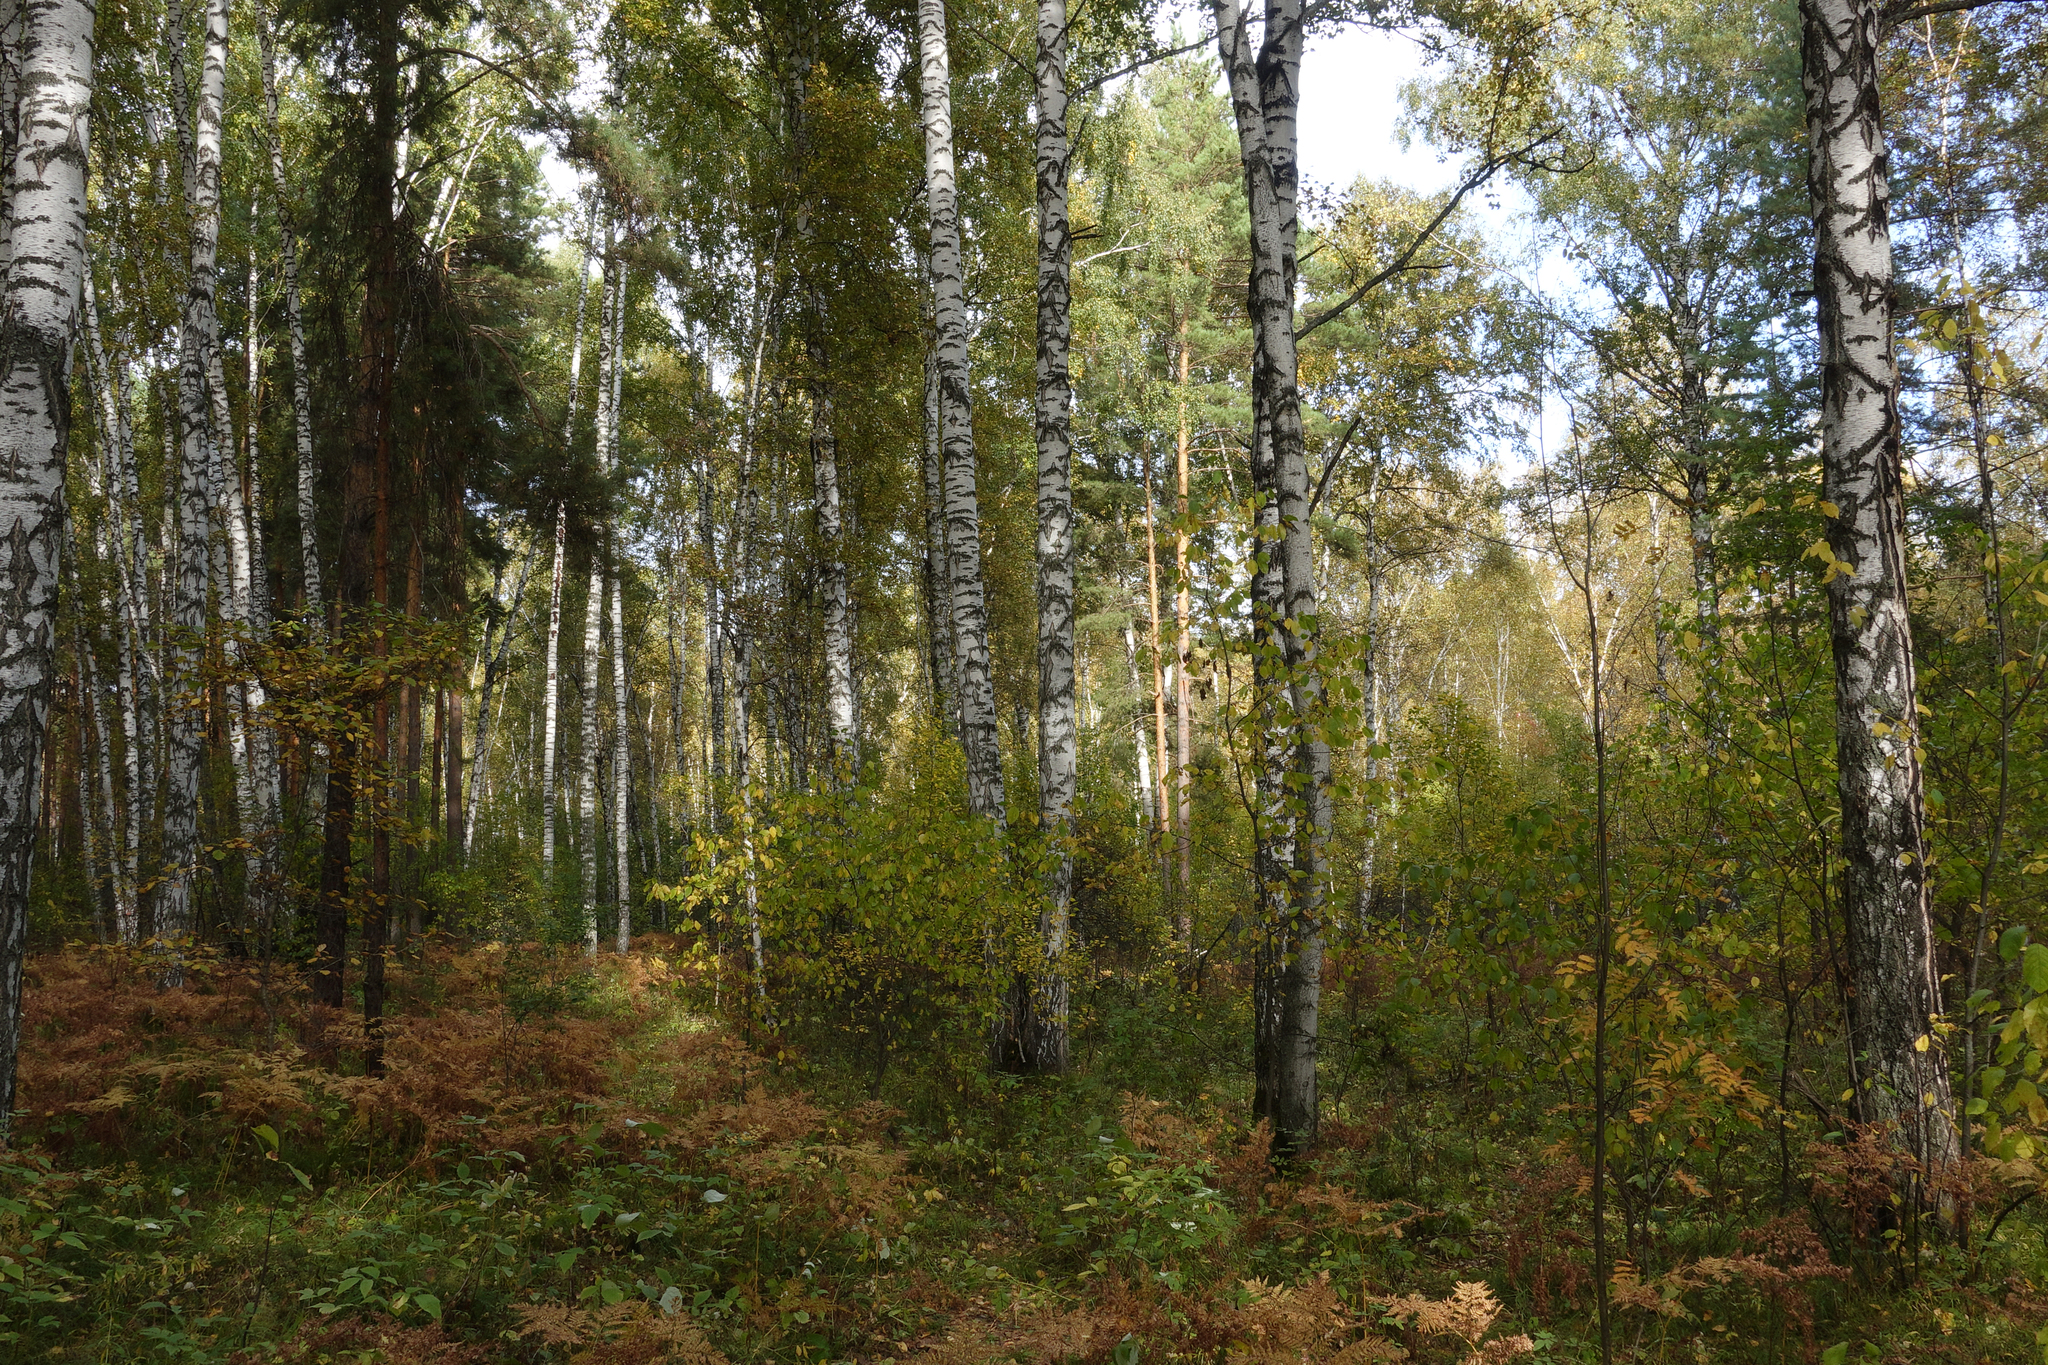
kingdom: Plantae
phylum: Tracheophyta
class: Magnoliopsida
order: Fagales
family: Betulaceae
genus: Betula
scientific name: Betula pendula
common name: Silver birch
